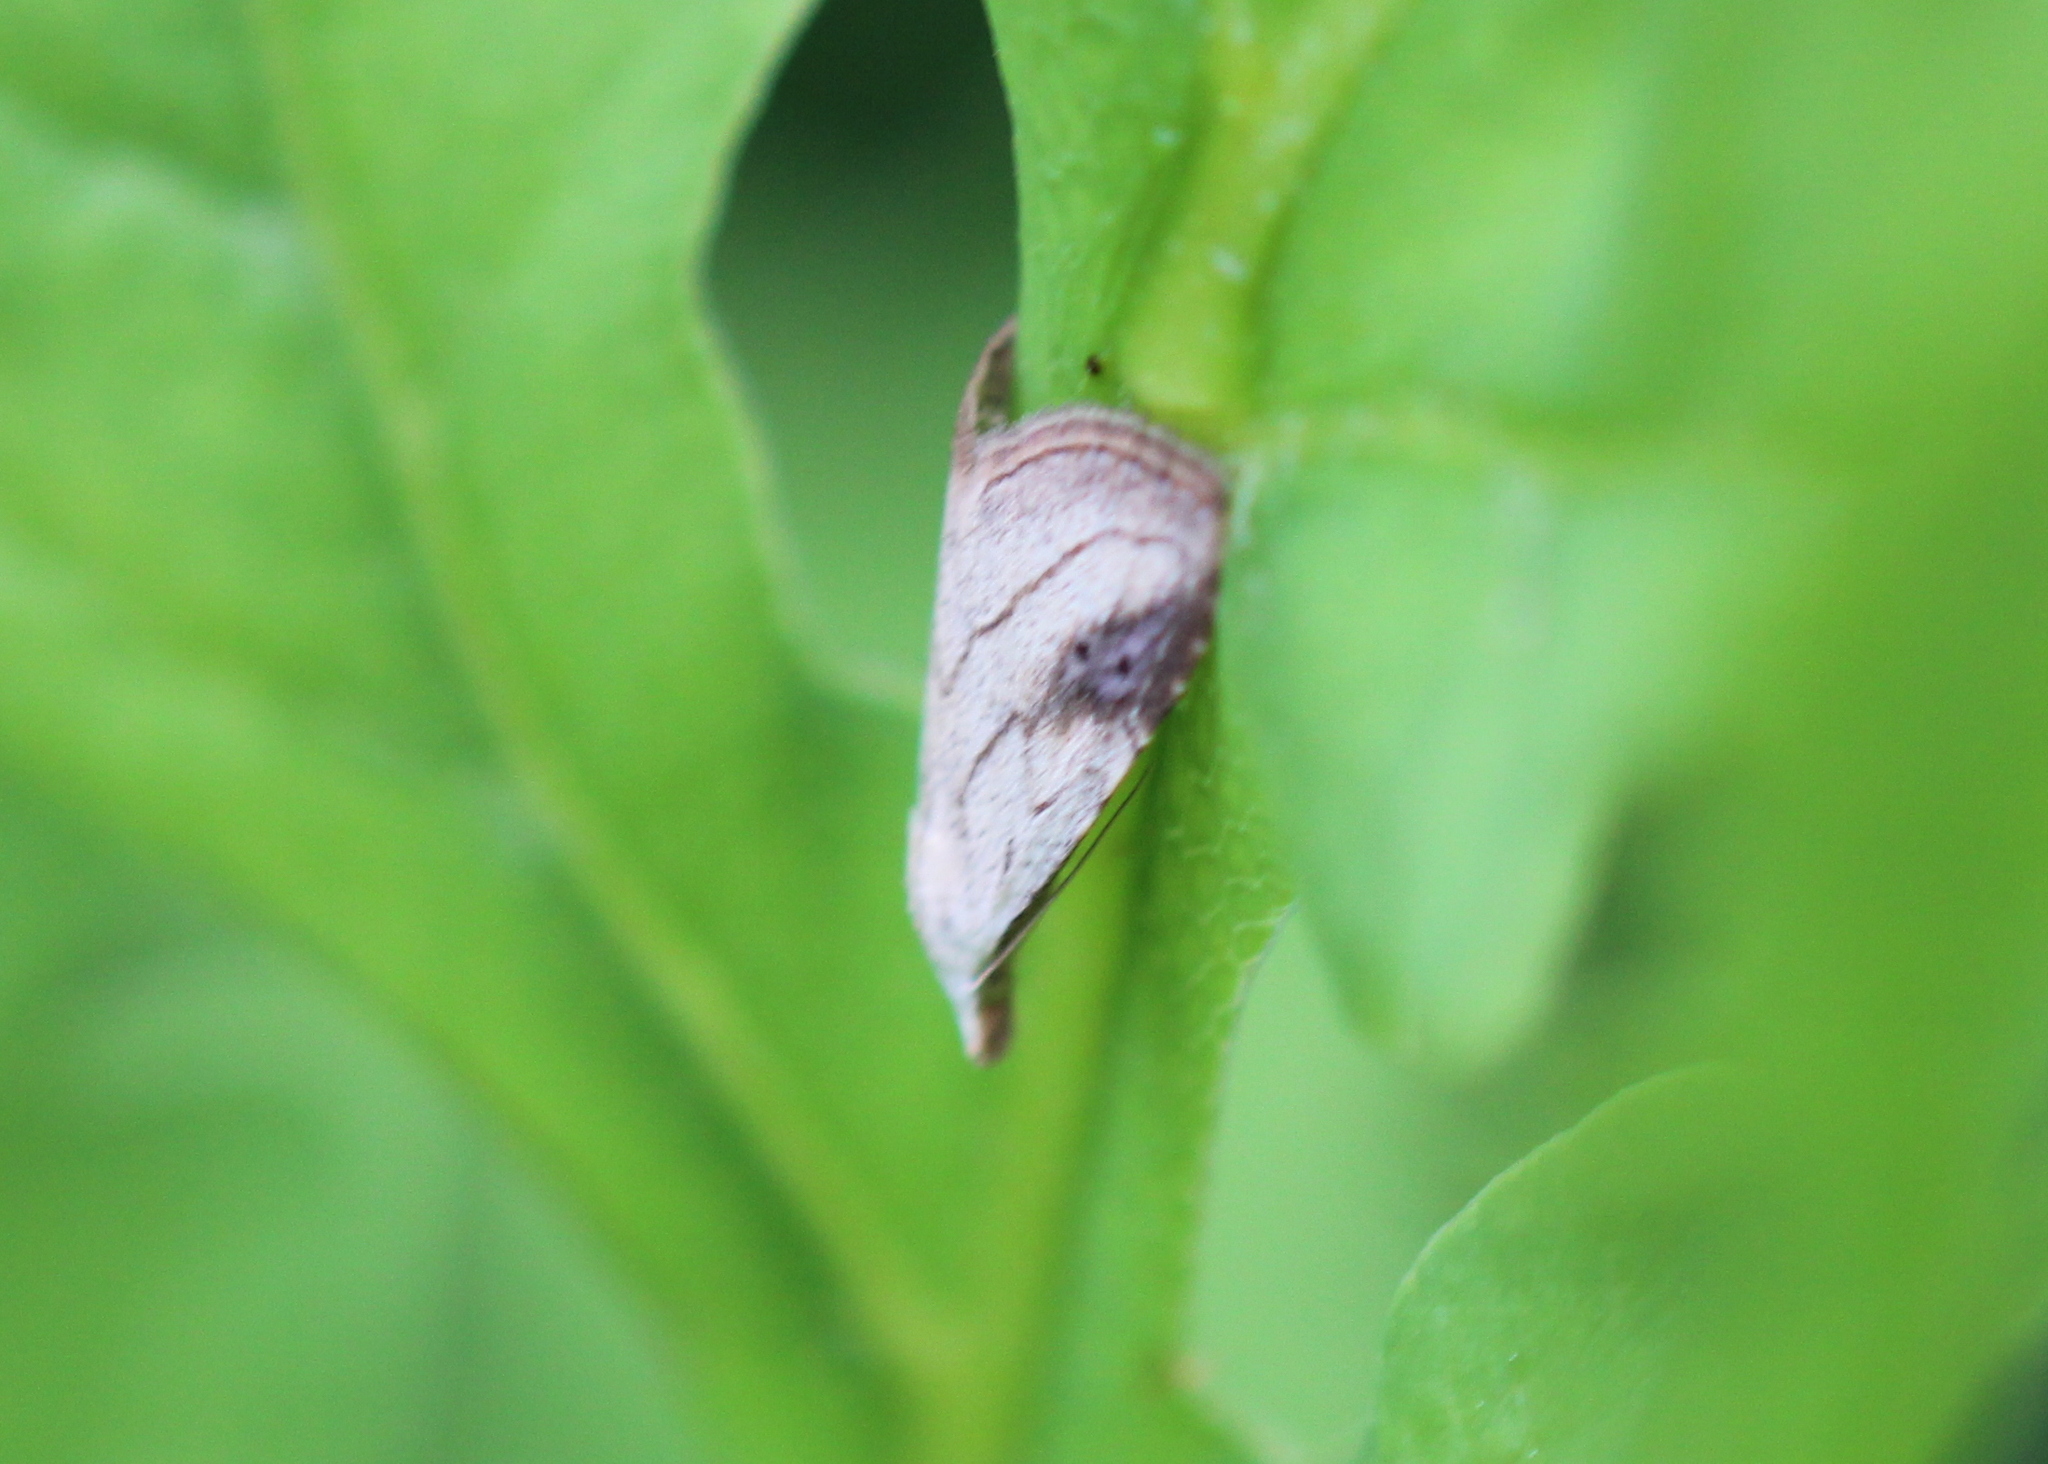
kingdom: Animalia
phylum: Arthropoda
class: Insecta
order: Lepidoptera
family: Erebidae
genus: Rivula
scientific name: Rivula propinqualis
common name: Spotted grass moth
